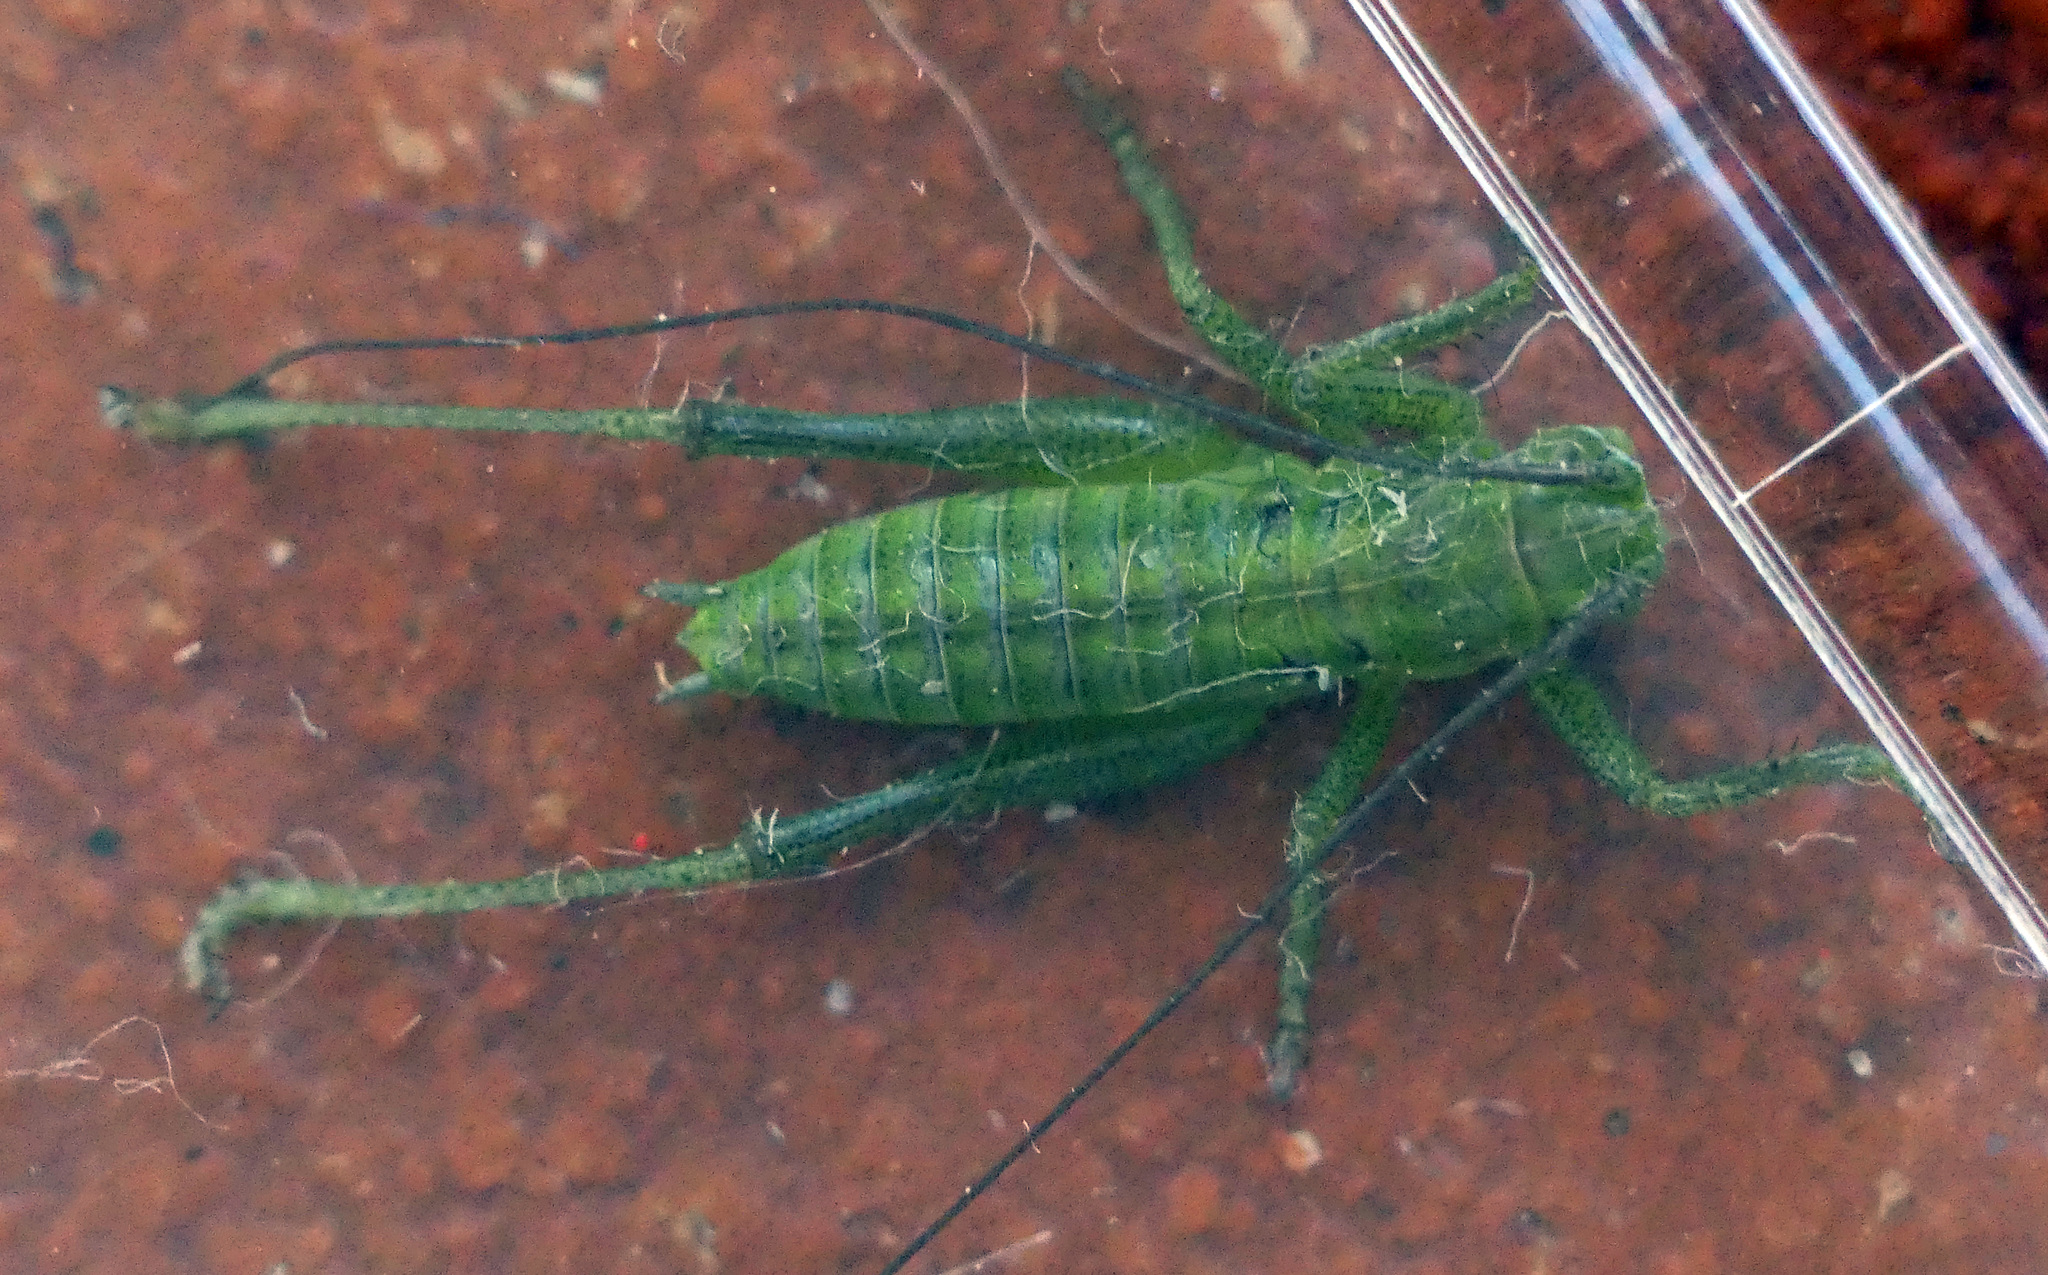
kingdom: Animalia
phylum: Arthropoda
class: Insecta
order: Orthoptera
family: Tettigoniidae
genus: Tettigonia
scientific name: Tettigonia viridissima
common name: Great green bush-cricket
